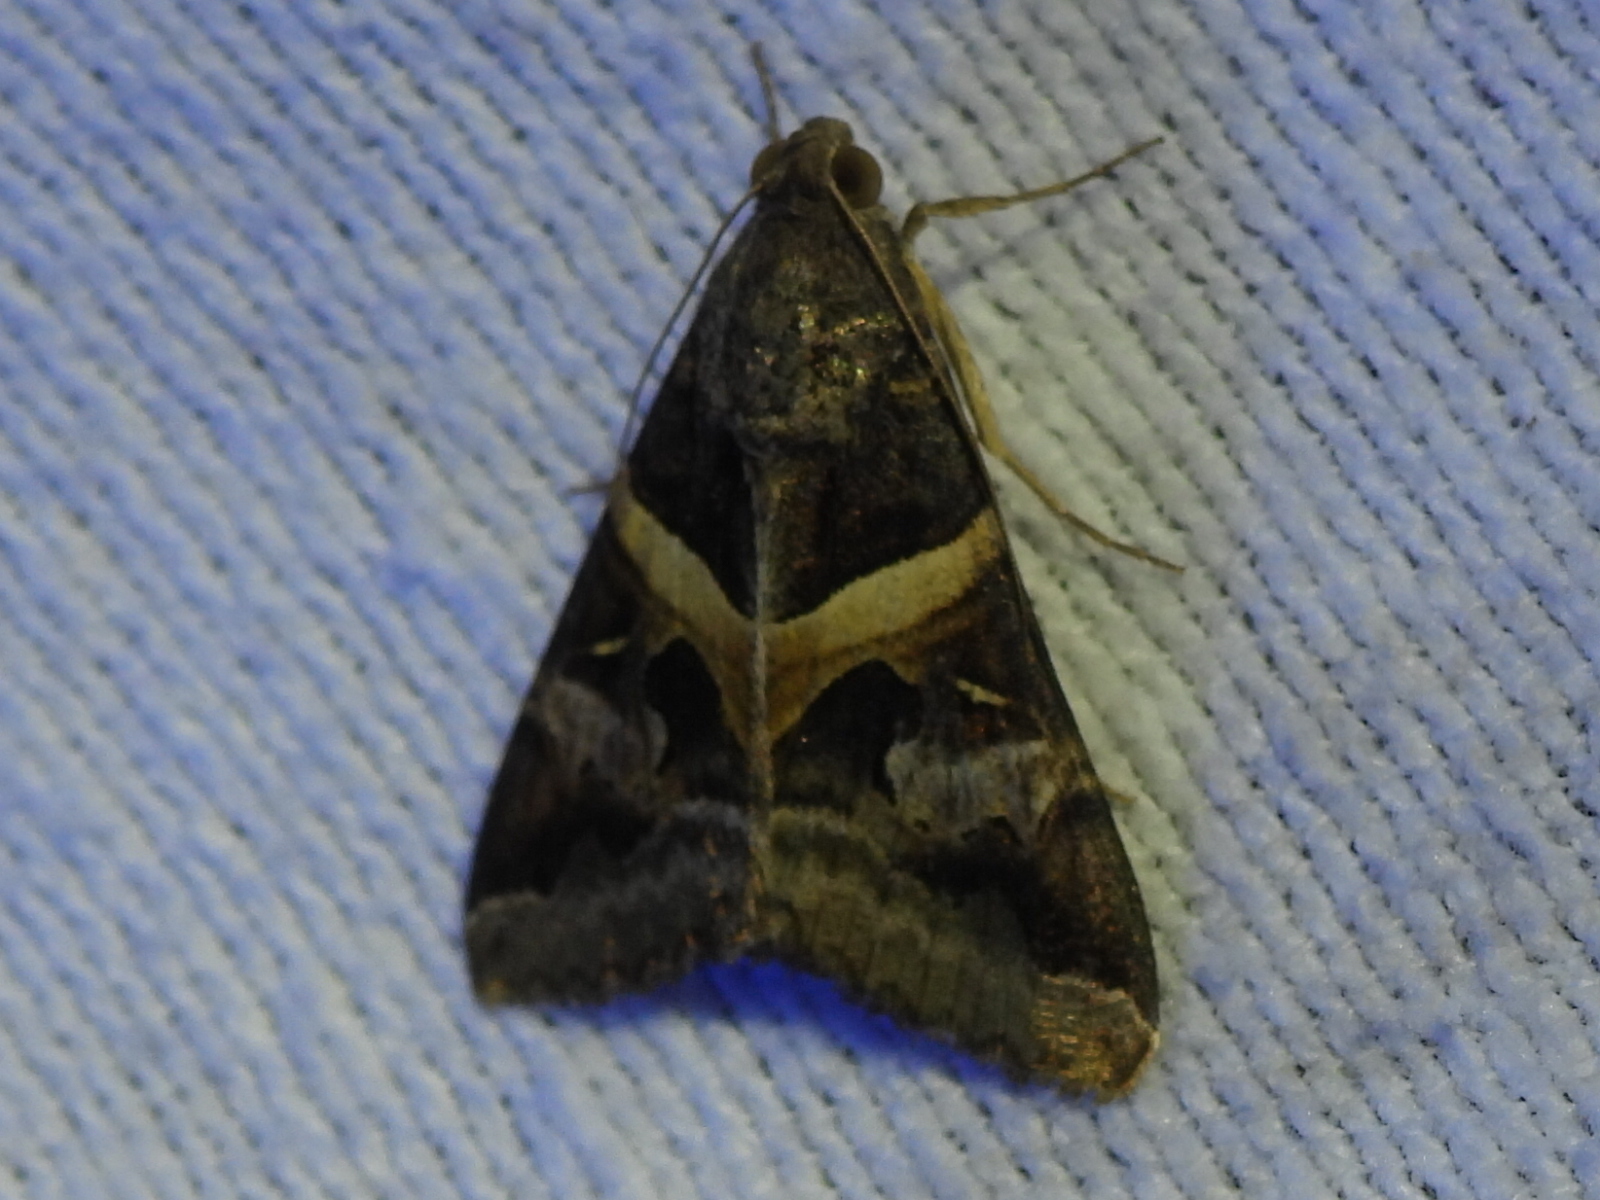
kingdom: Animalia
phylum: Arthropoda
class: Insecta
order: Lepidoptera
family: Erebidae
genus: Melipotis
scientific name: Melipotis indomita
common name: Moth
